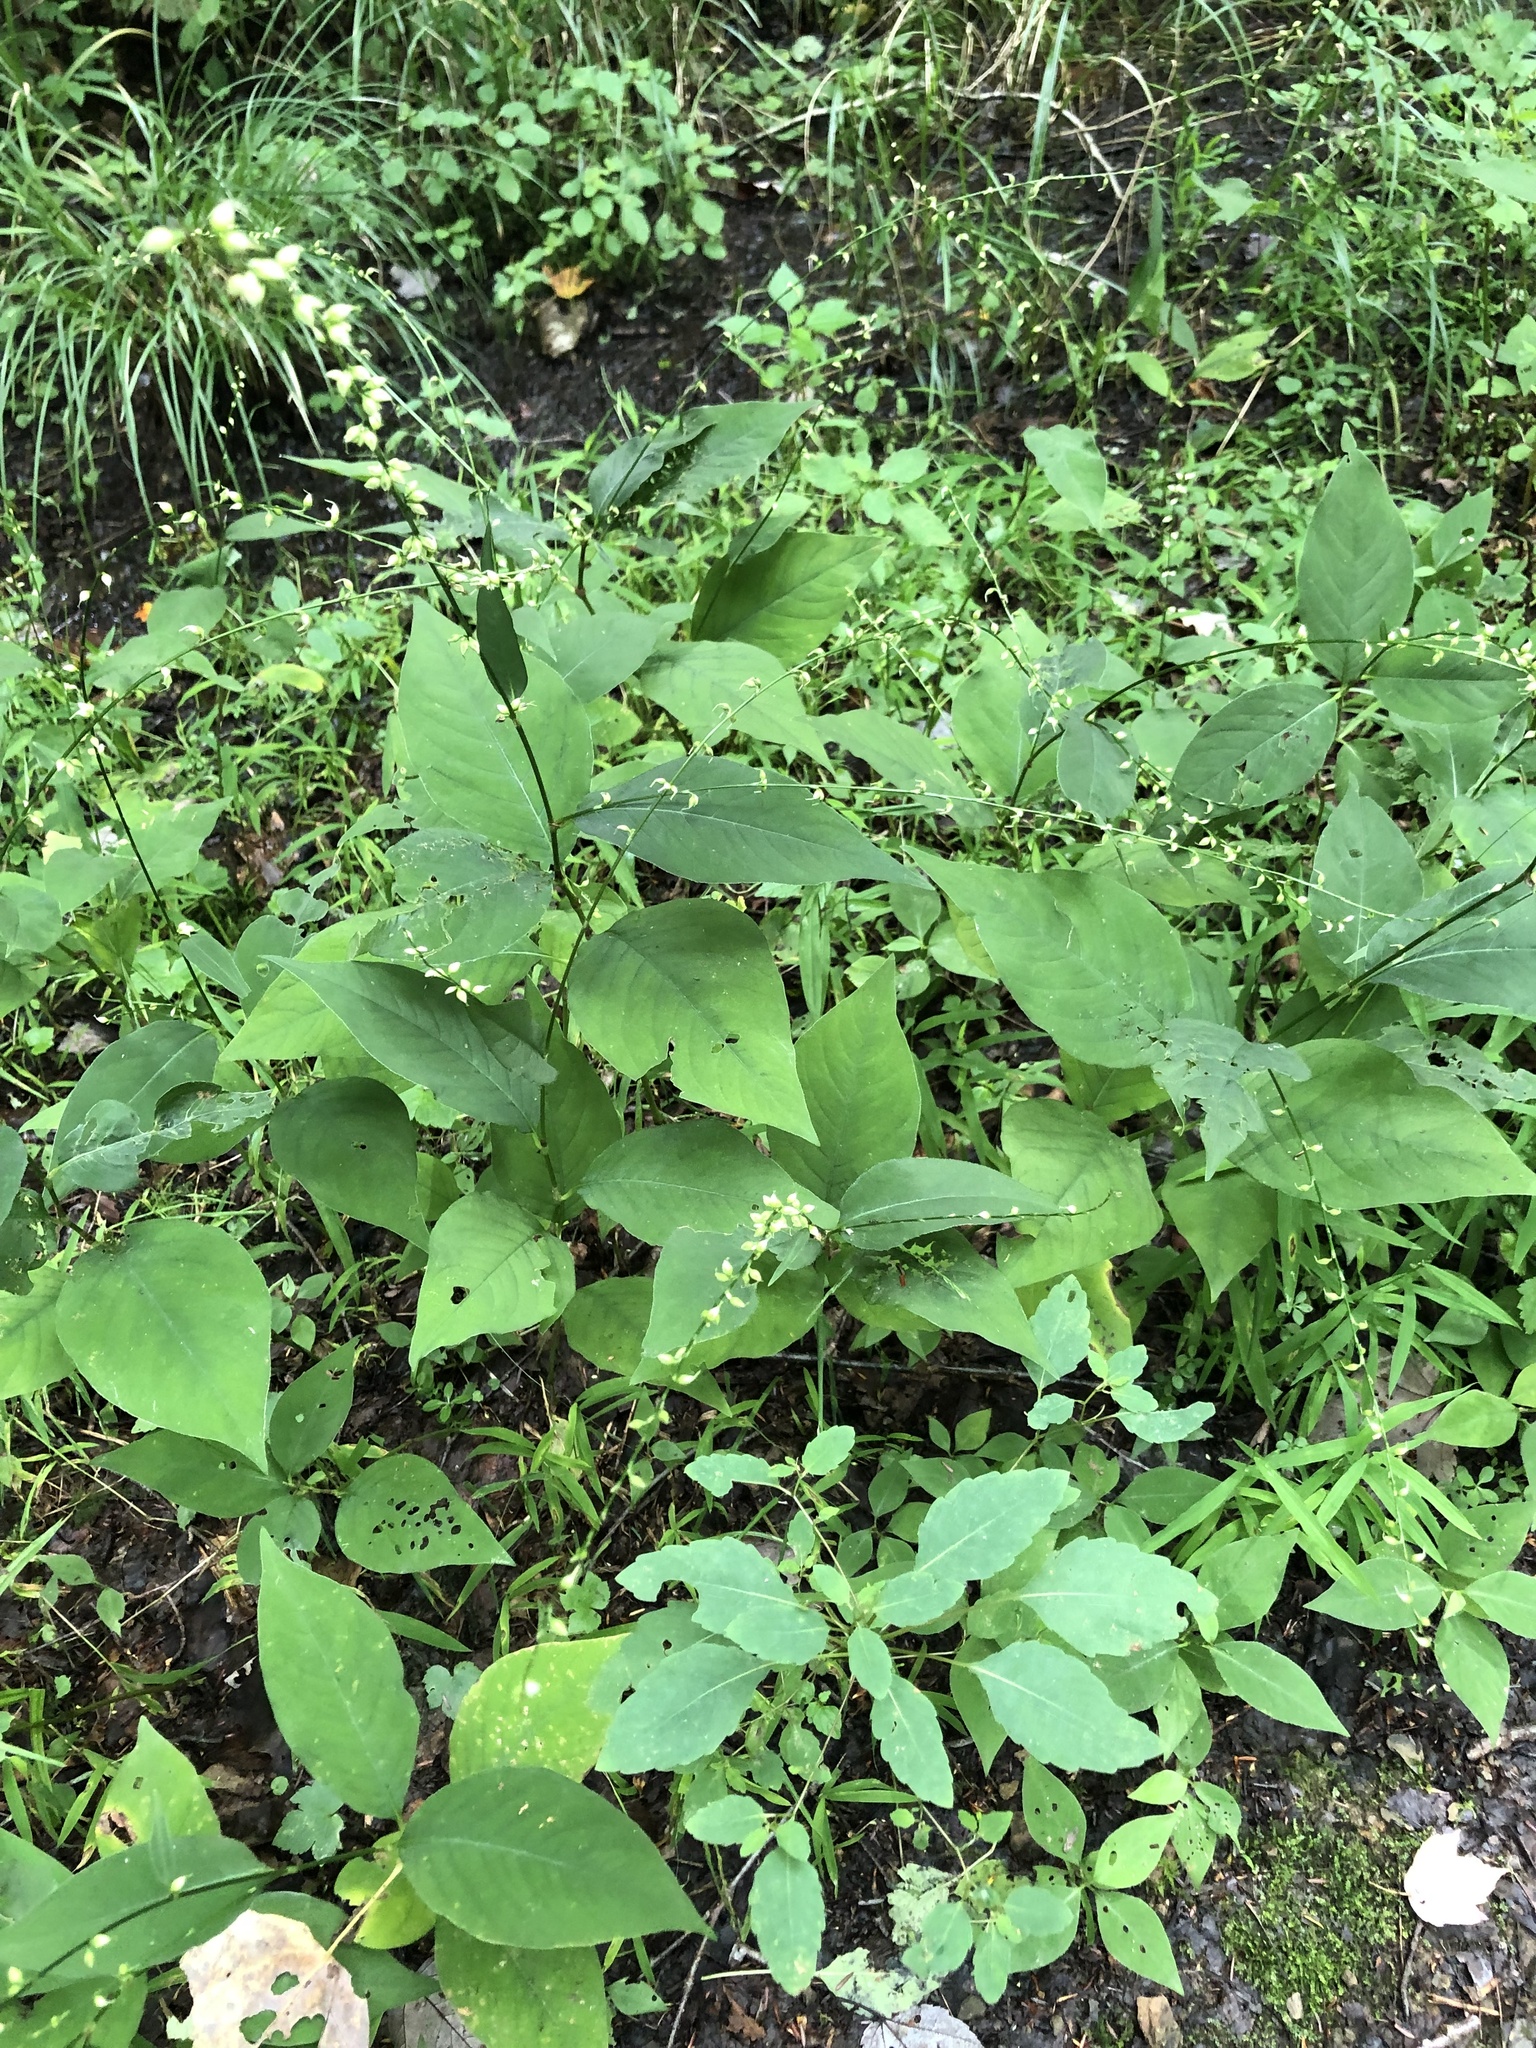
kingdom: Plantae
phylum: Tracheophyta
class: Magnoliopsida
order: Caryophyllales
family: Polygonaceae
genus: Persicaria
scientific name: Persicaria virginiana
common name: Jumpseed
